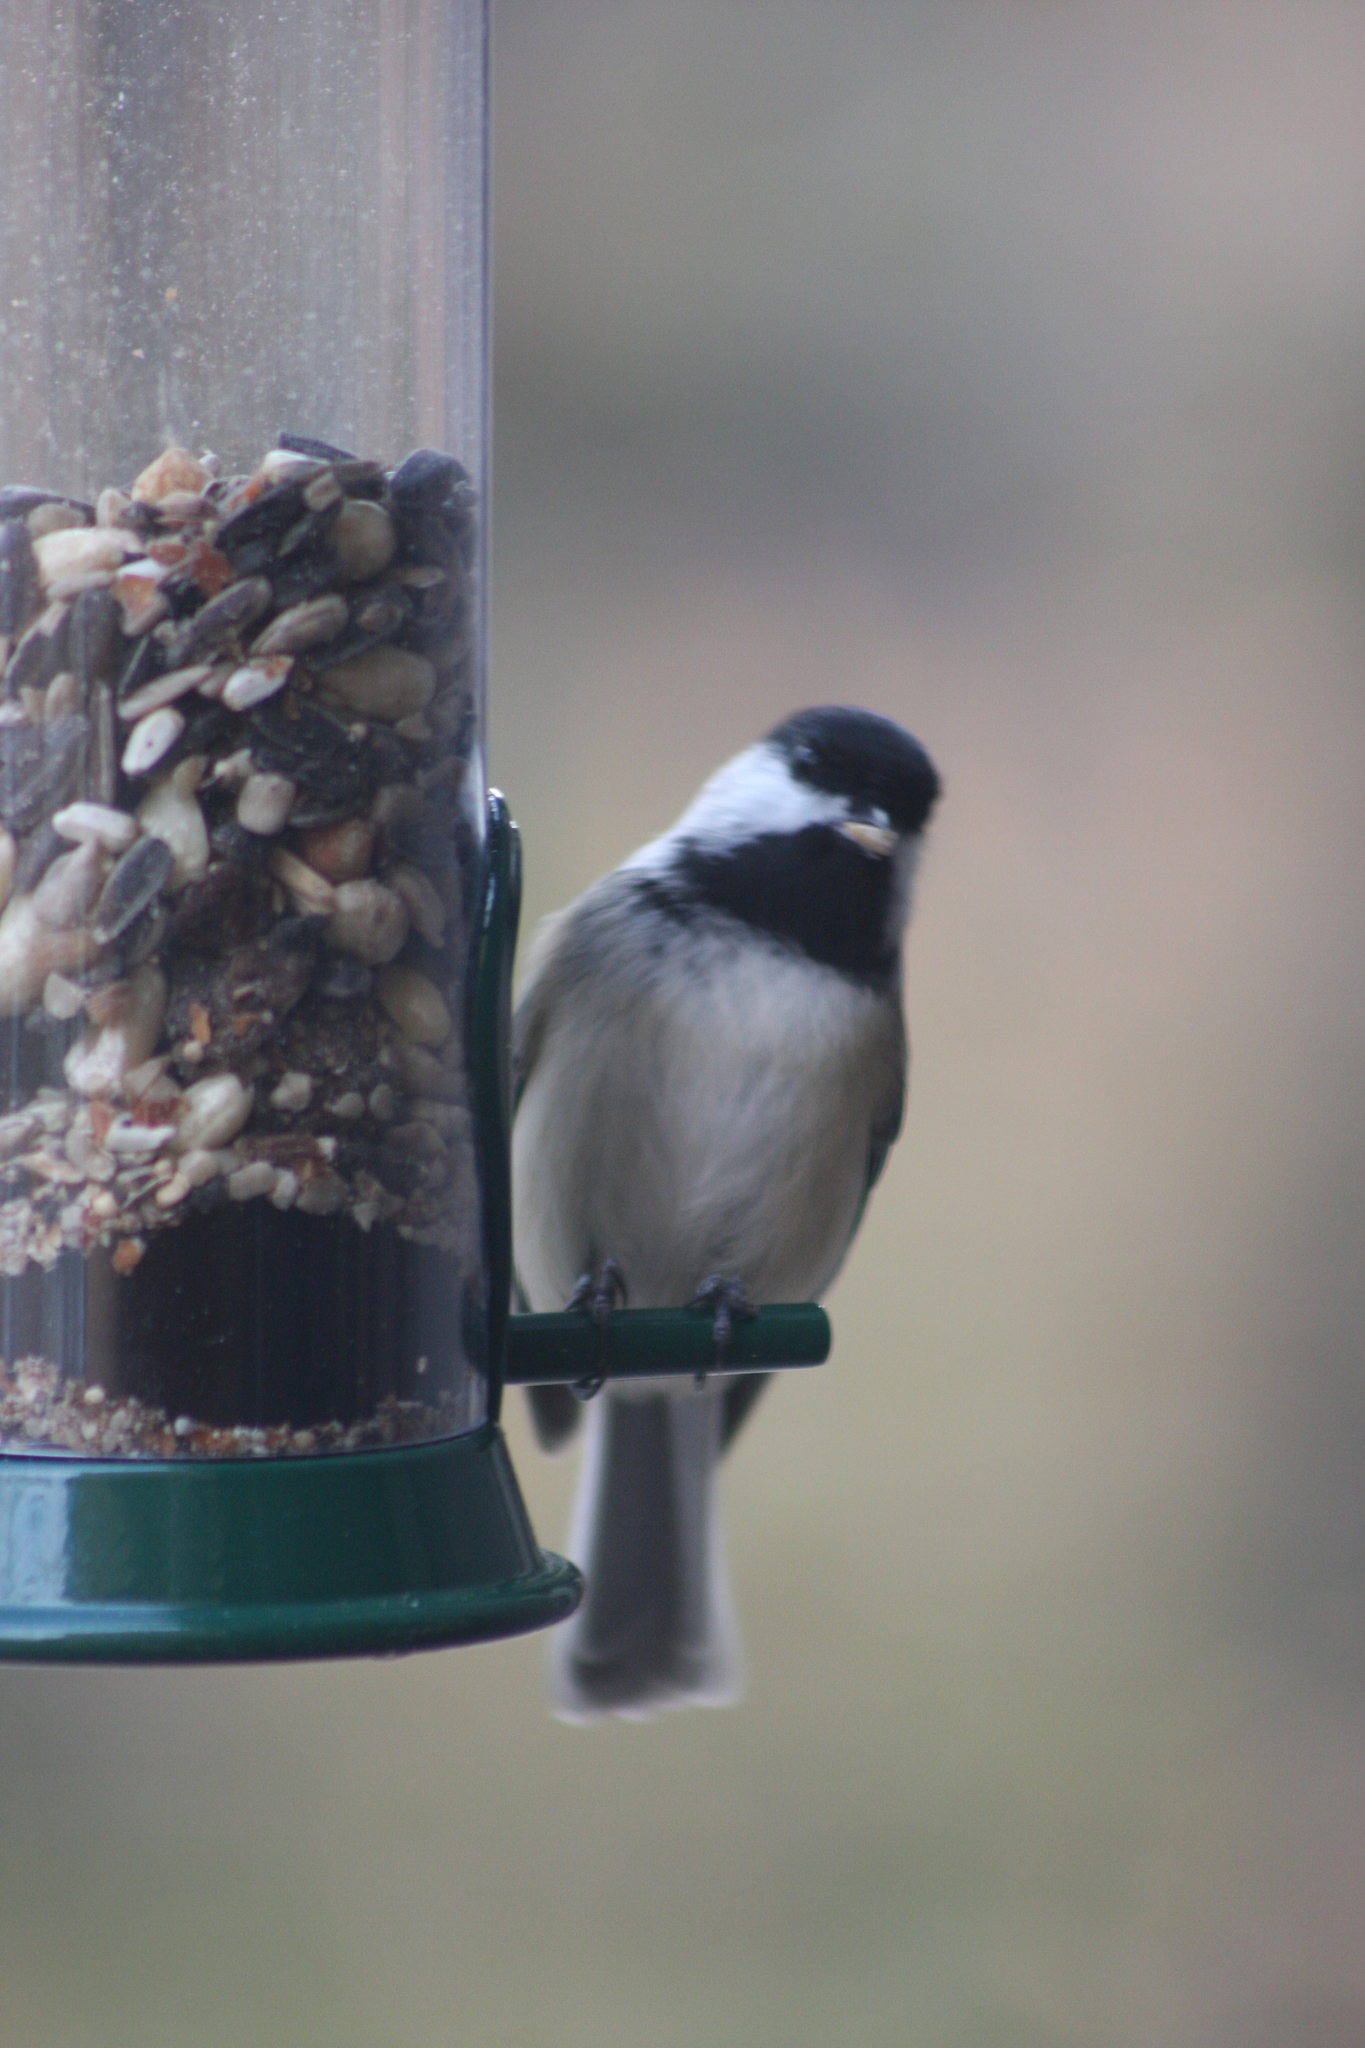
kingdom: Animalia
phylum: Chordata
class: Aves
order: Passeriformes
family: Paridae
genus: Poecile
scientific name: Poecile atricapillus
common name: Black-capped chickadee
